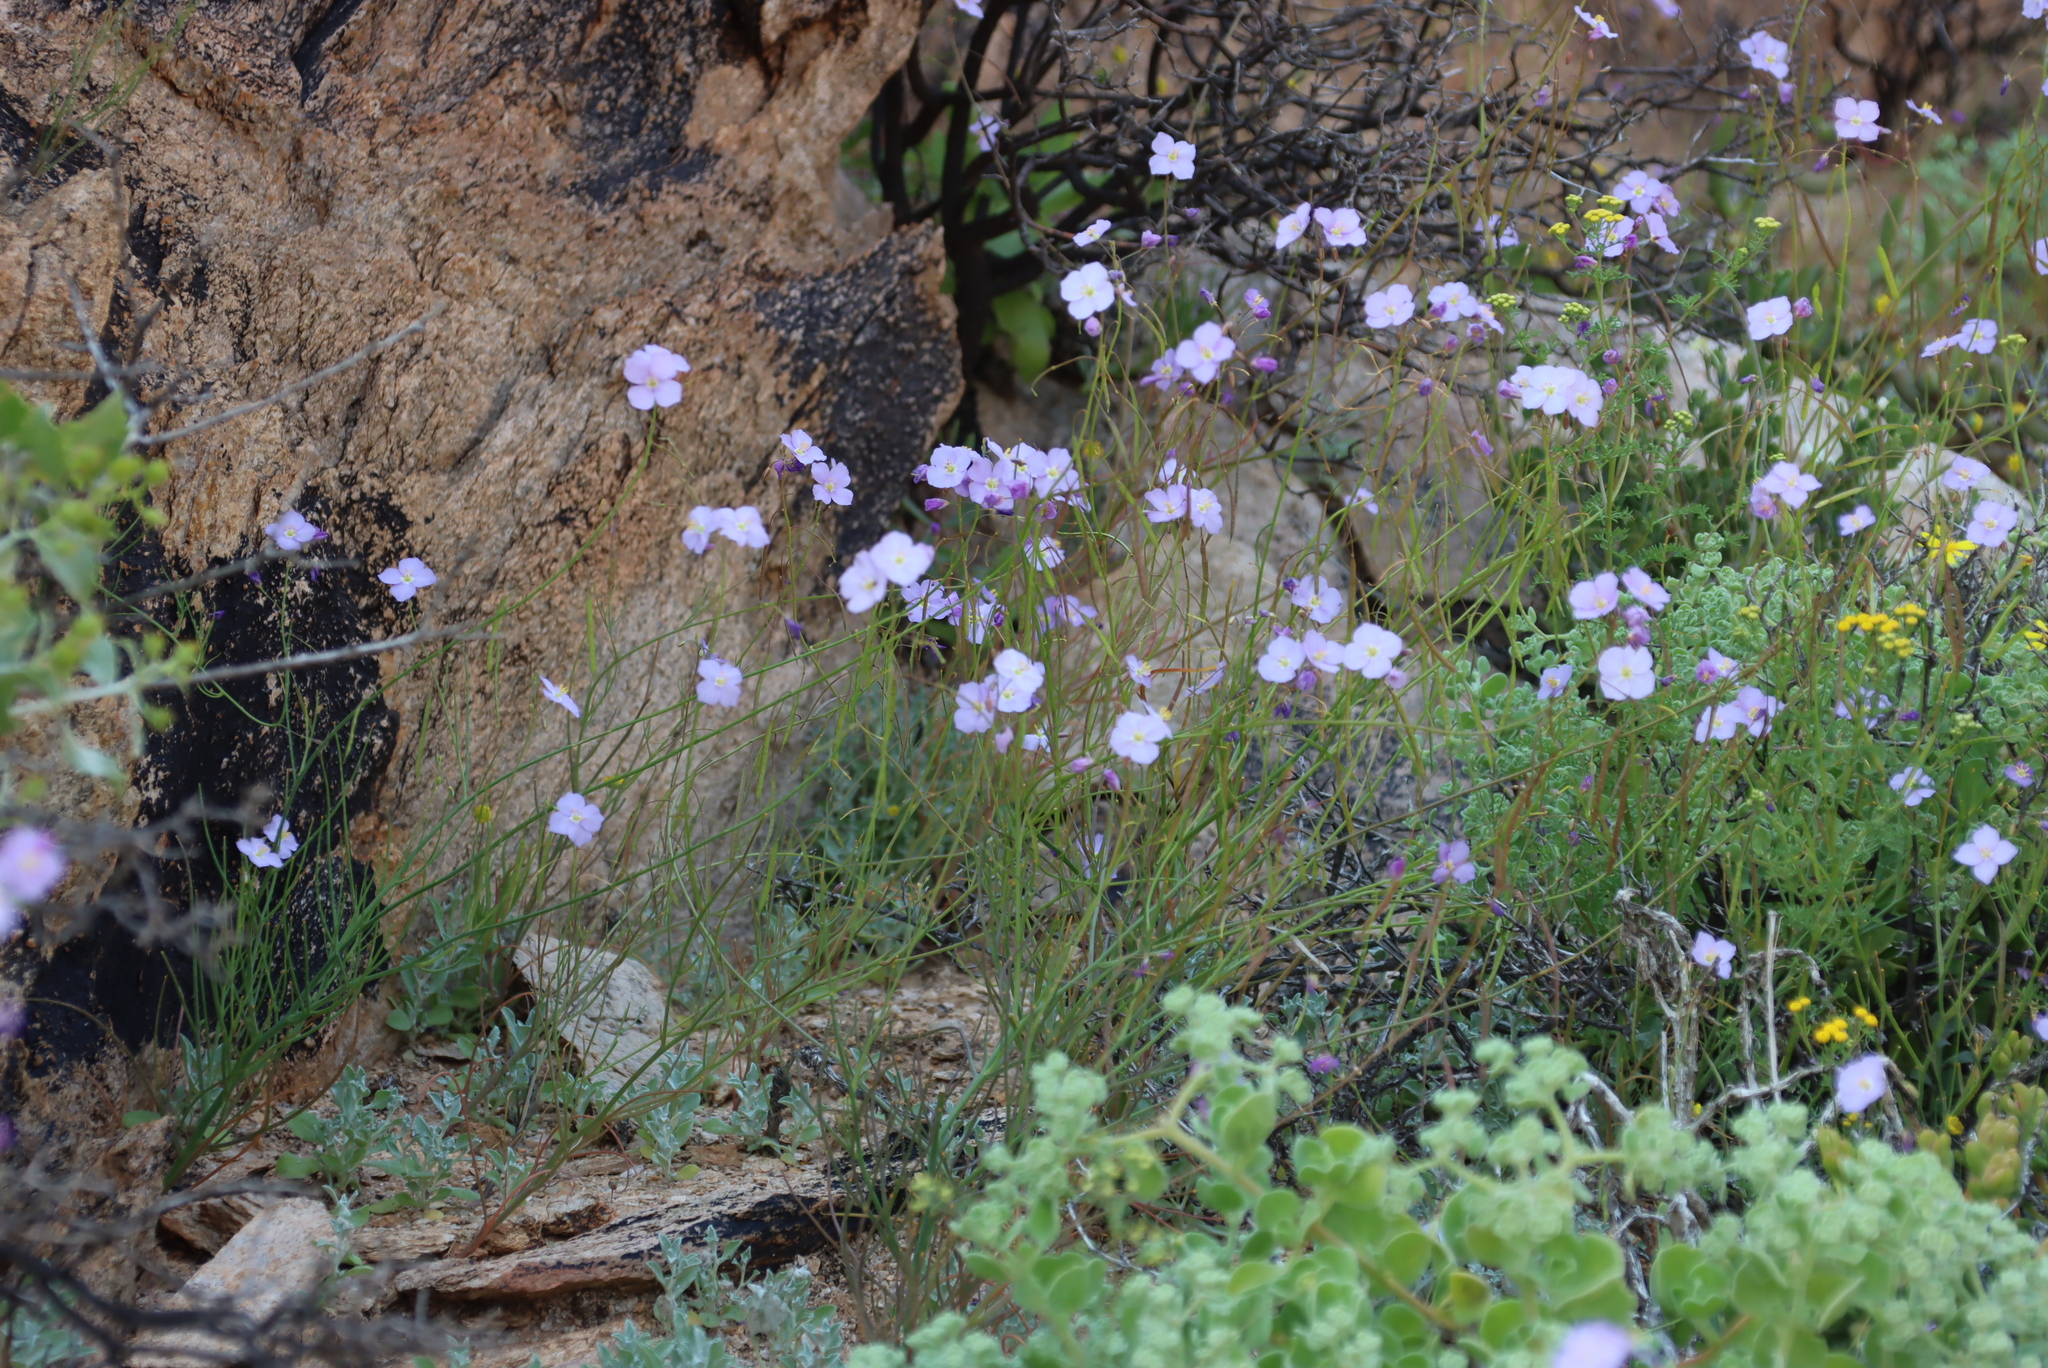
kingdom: Plantae
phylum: Tracheophyta
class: Magnoliopsida
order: Brassicales
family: Brassicaceae
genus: Heliophila
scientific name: Heliophila trifurca
